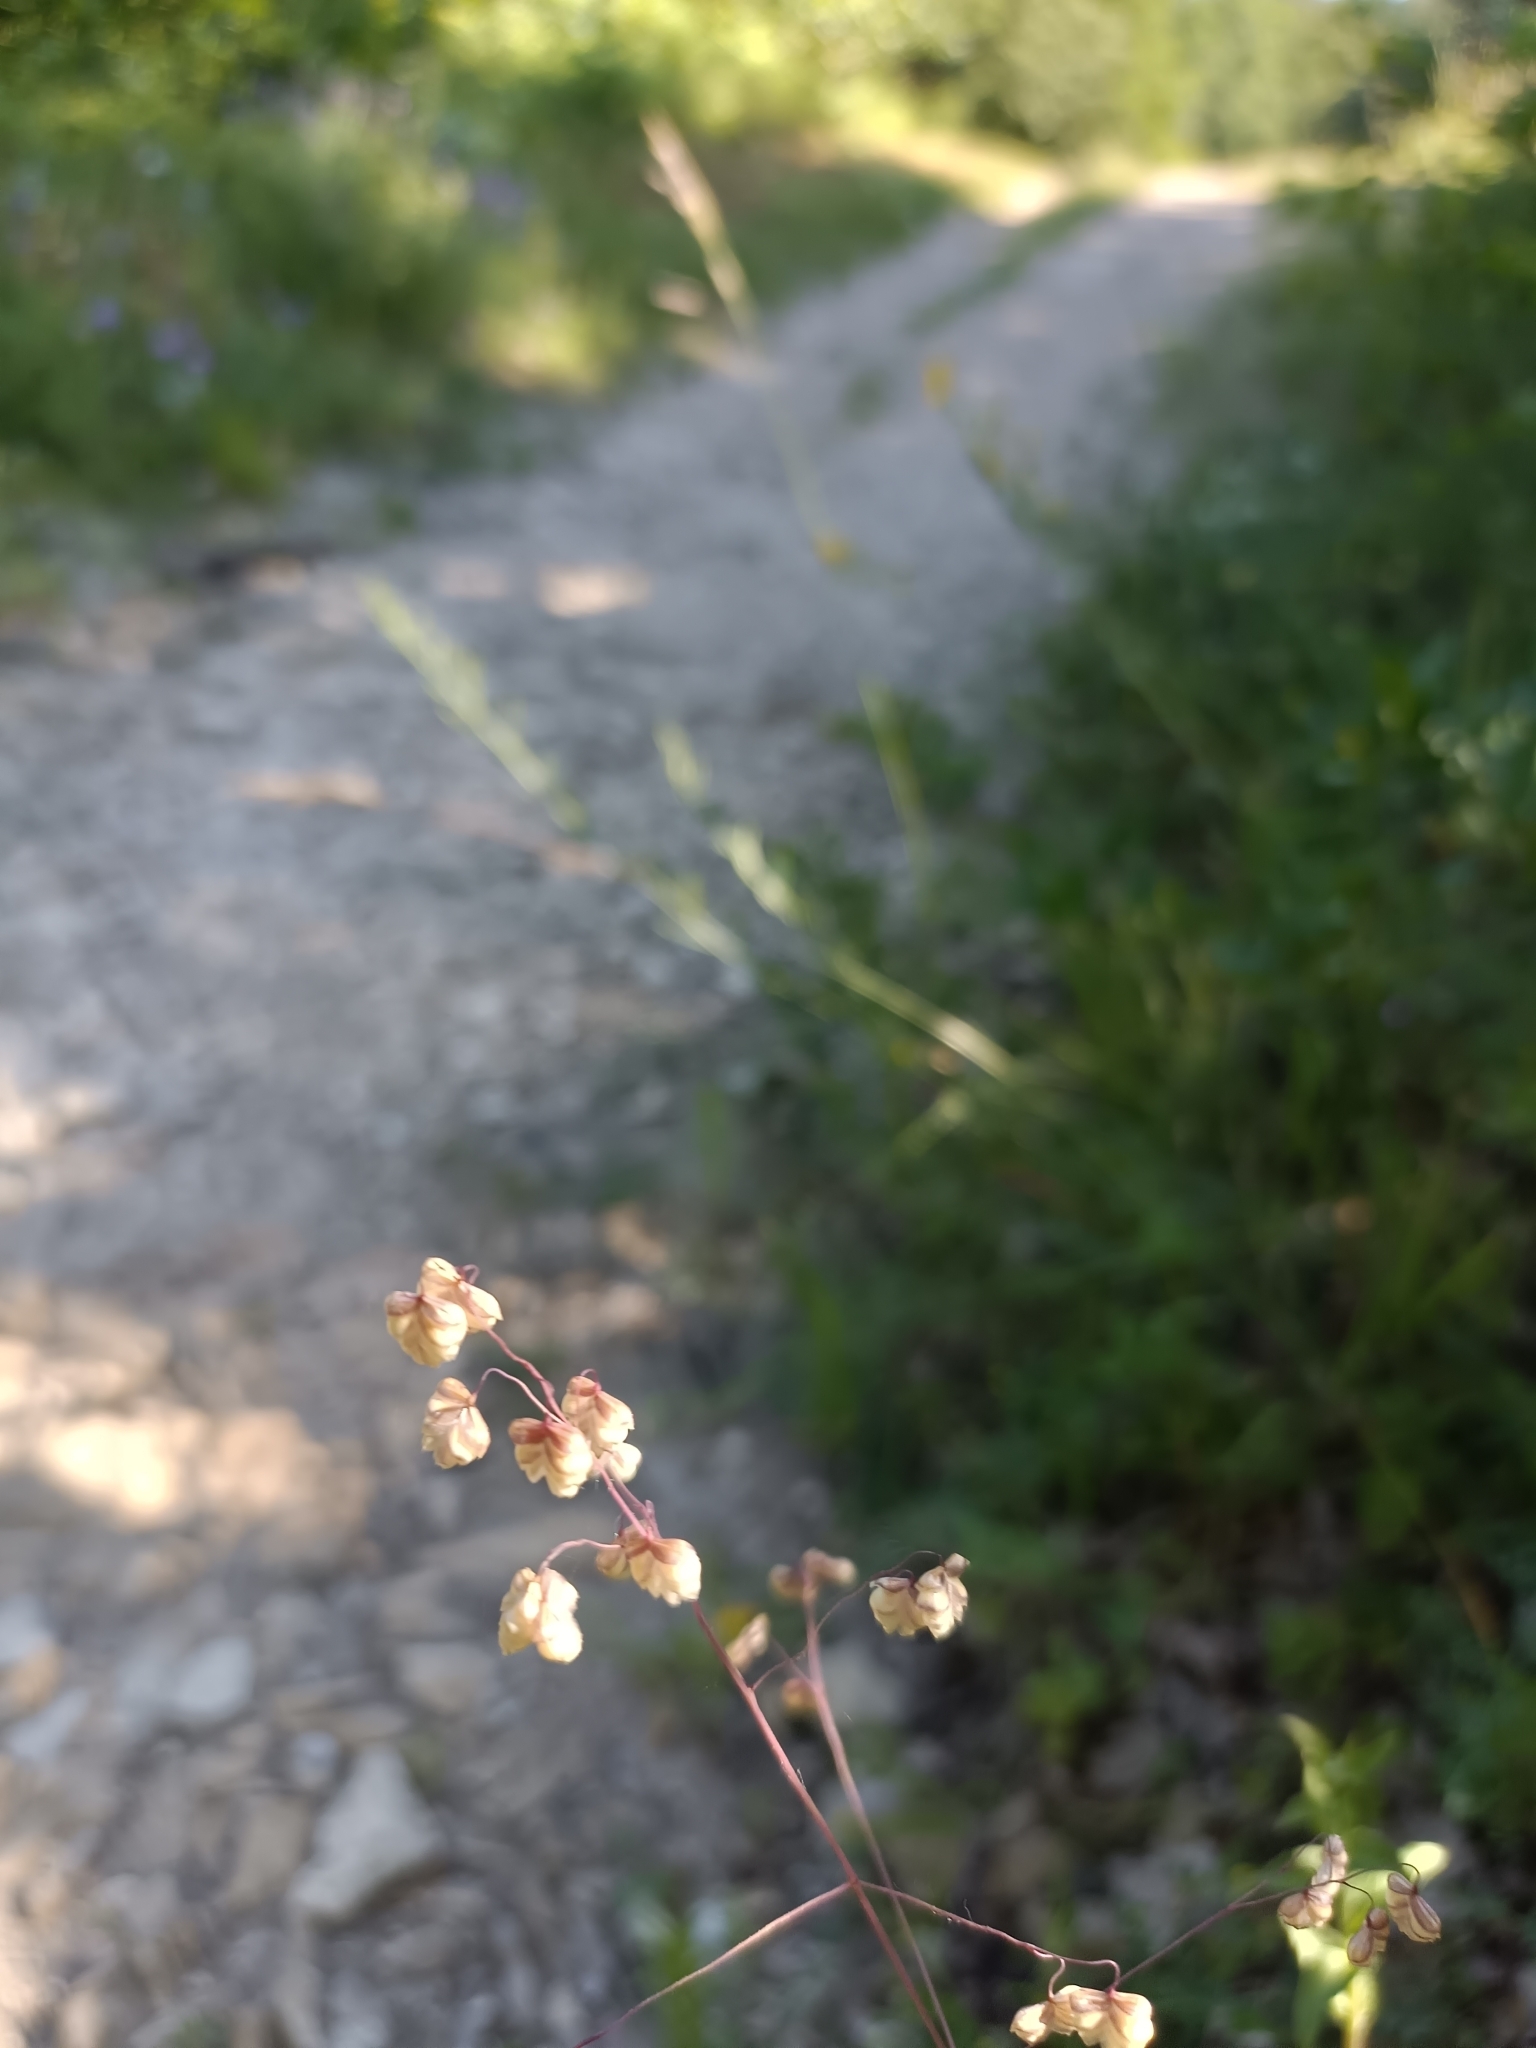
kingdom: Plantae
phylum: Tracheophyta
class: Liliopsida
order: Poales
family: Poaceae
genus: Briza
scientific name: Briza media
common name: Quaking grass
